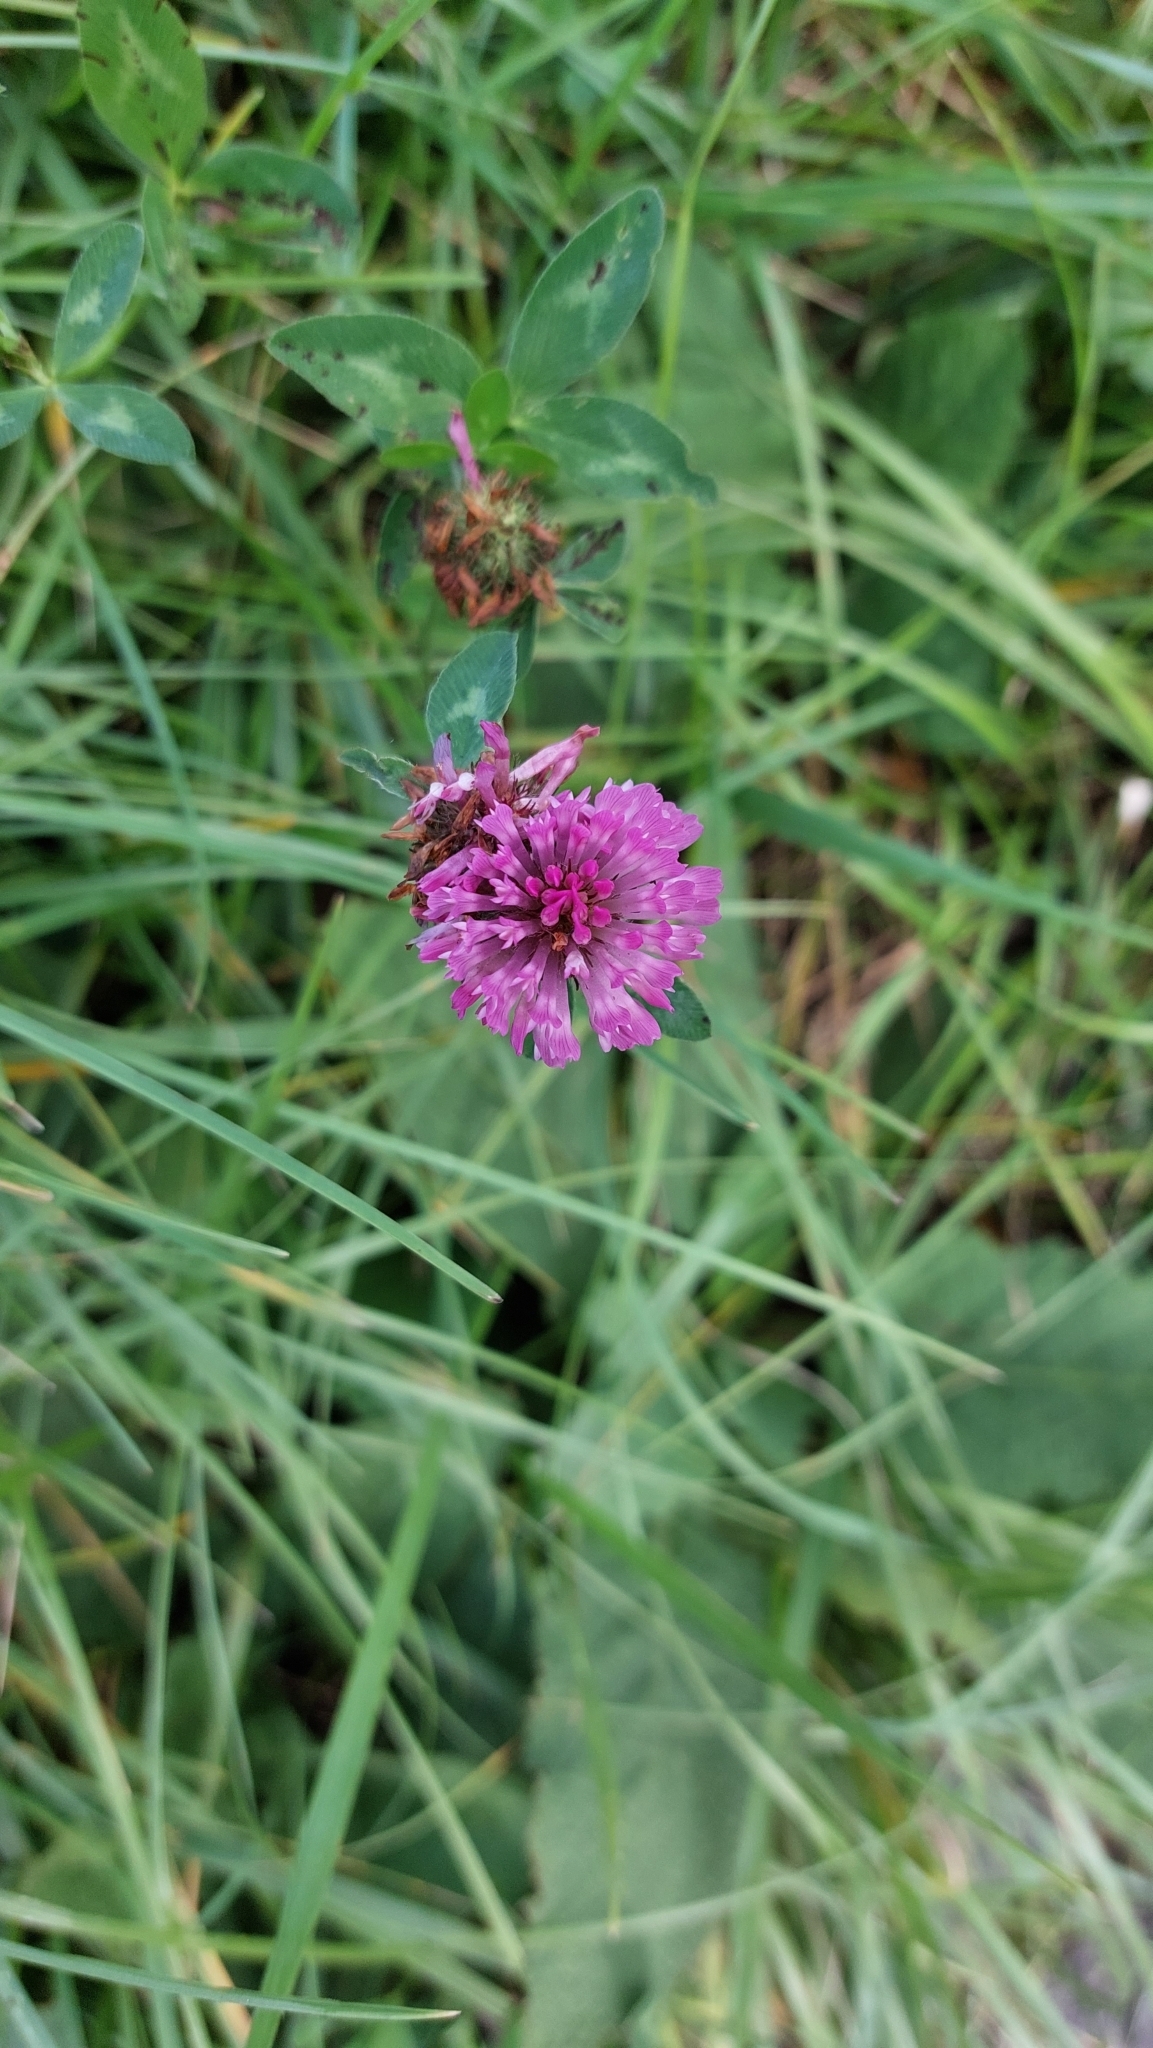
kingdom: Plantae
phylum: Tracheophyta
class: Magnoliopsida
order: Fabales
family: Fabaceae
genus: Trifolium
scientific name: Trifolium pratense
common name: Red clover
